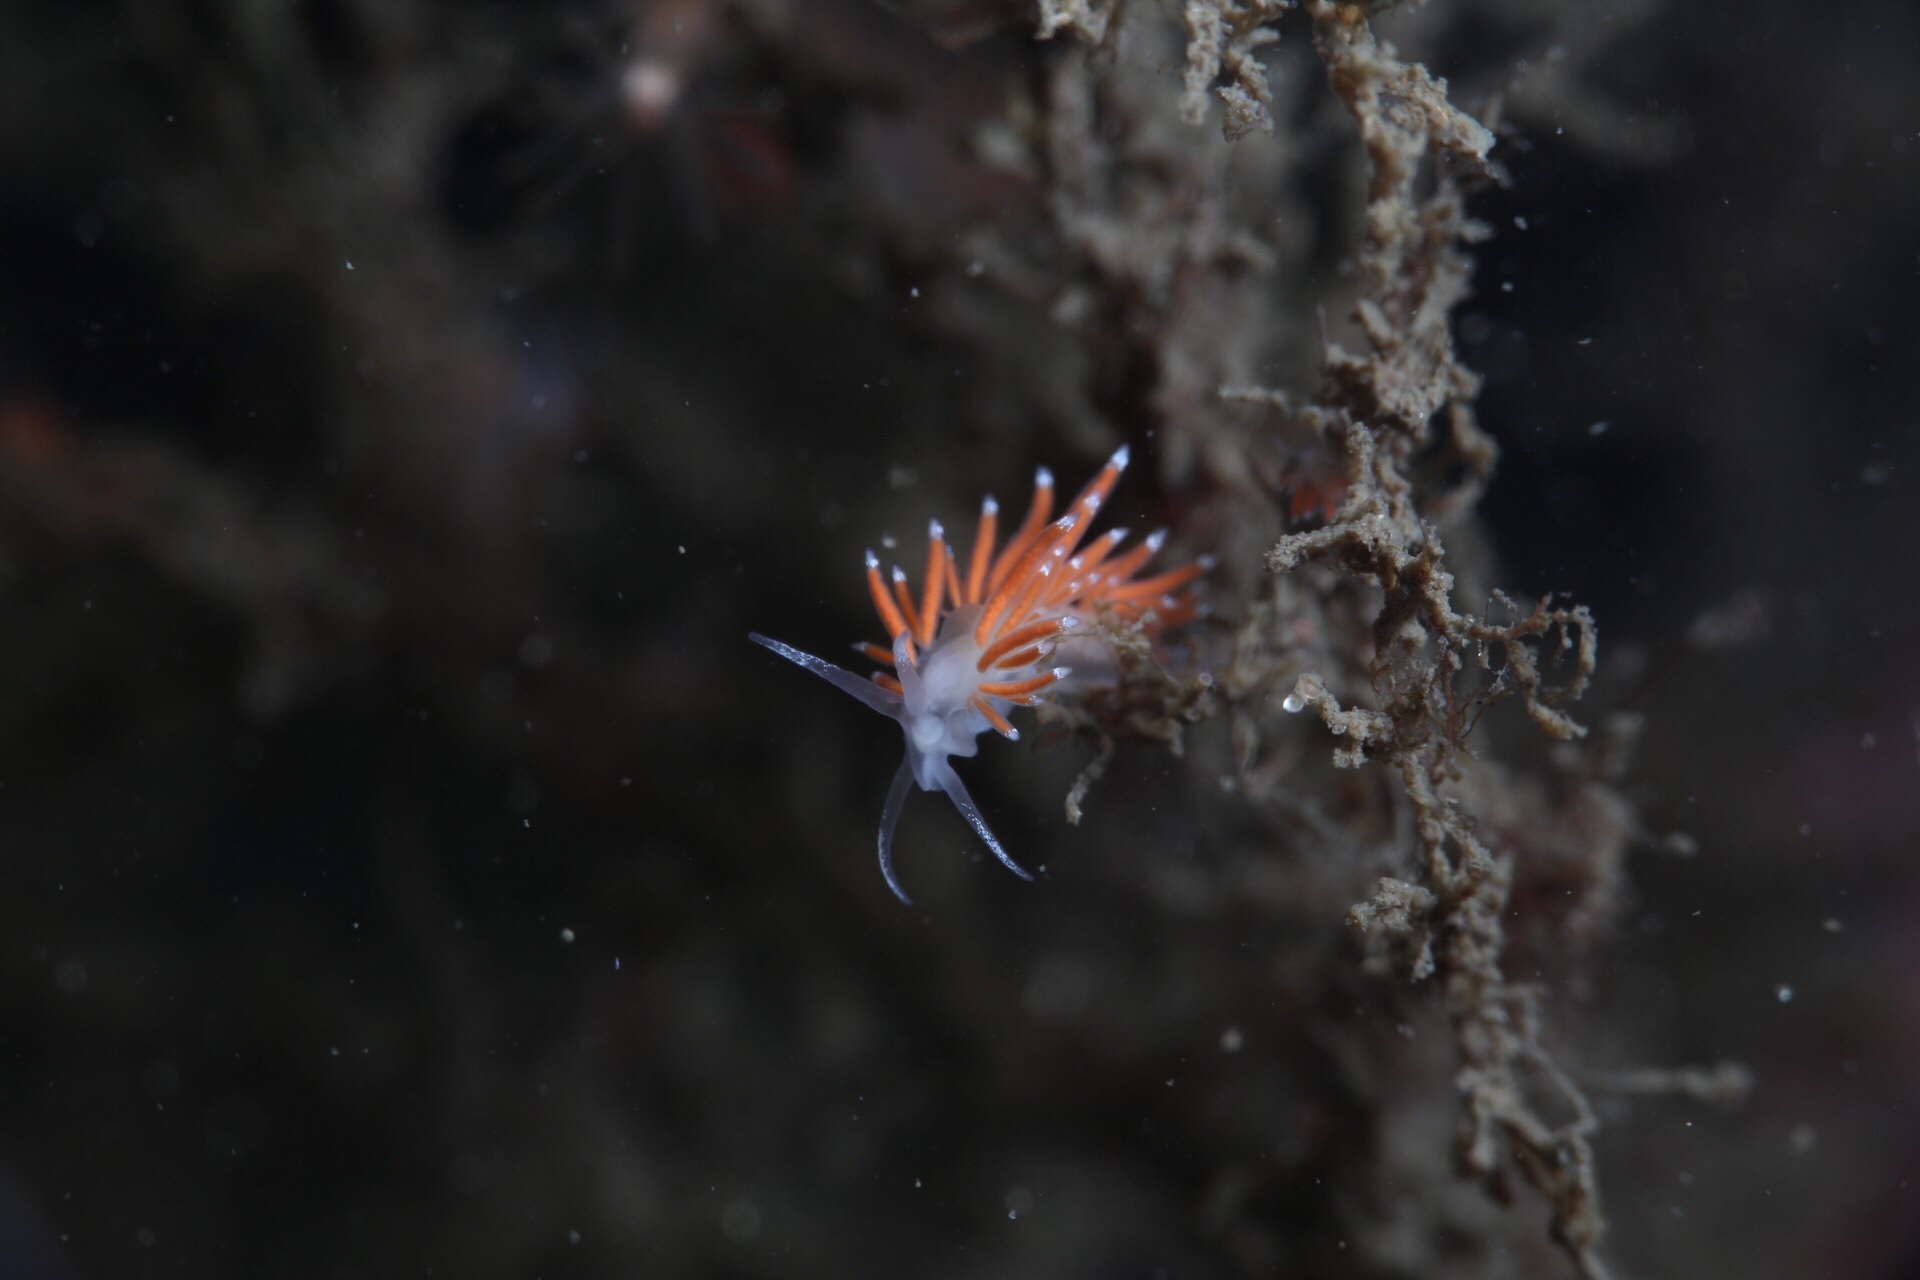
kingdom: Animalia
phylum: Mollusca
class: Gastropoda
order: Nudibranchia
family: Coryphellidae
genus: Coryphella
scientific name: Coryphella gracilis
